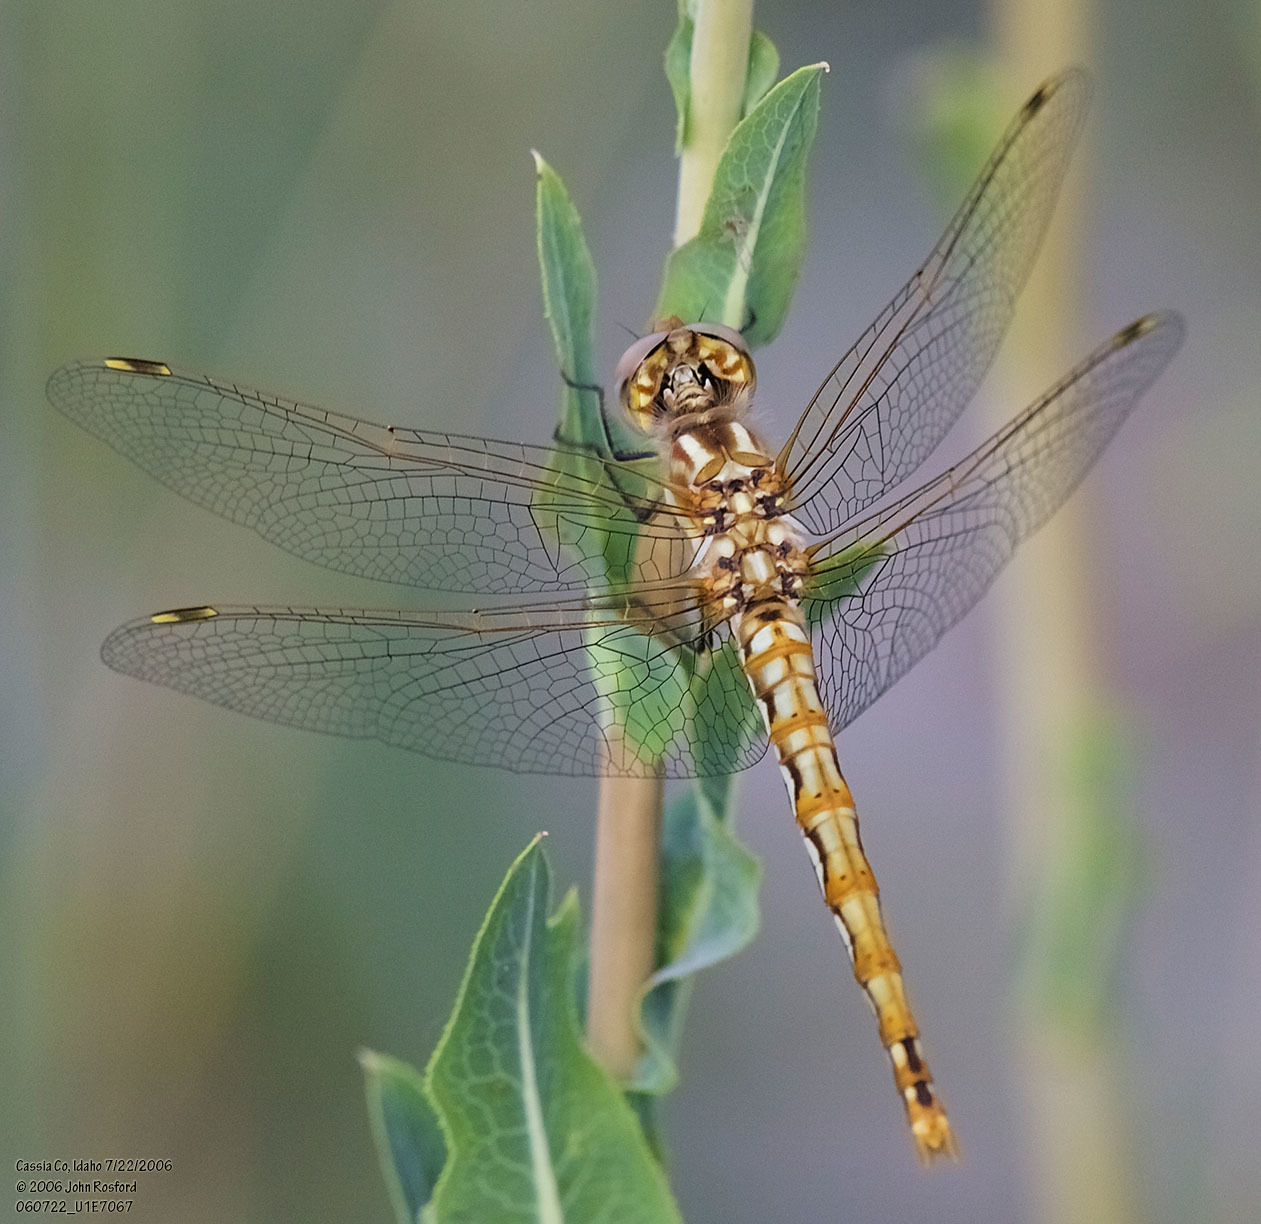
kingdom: Animalia
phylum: Arthropoda
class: Insecta
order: Odonata
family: Libellulidae
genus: Sympetrum
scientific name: Sympetrum corruptum
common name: Variegated meadowhawk
